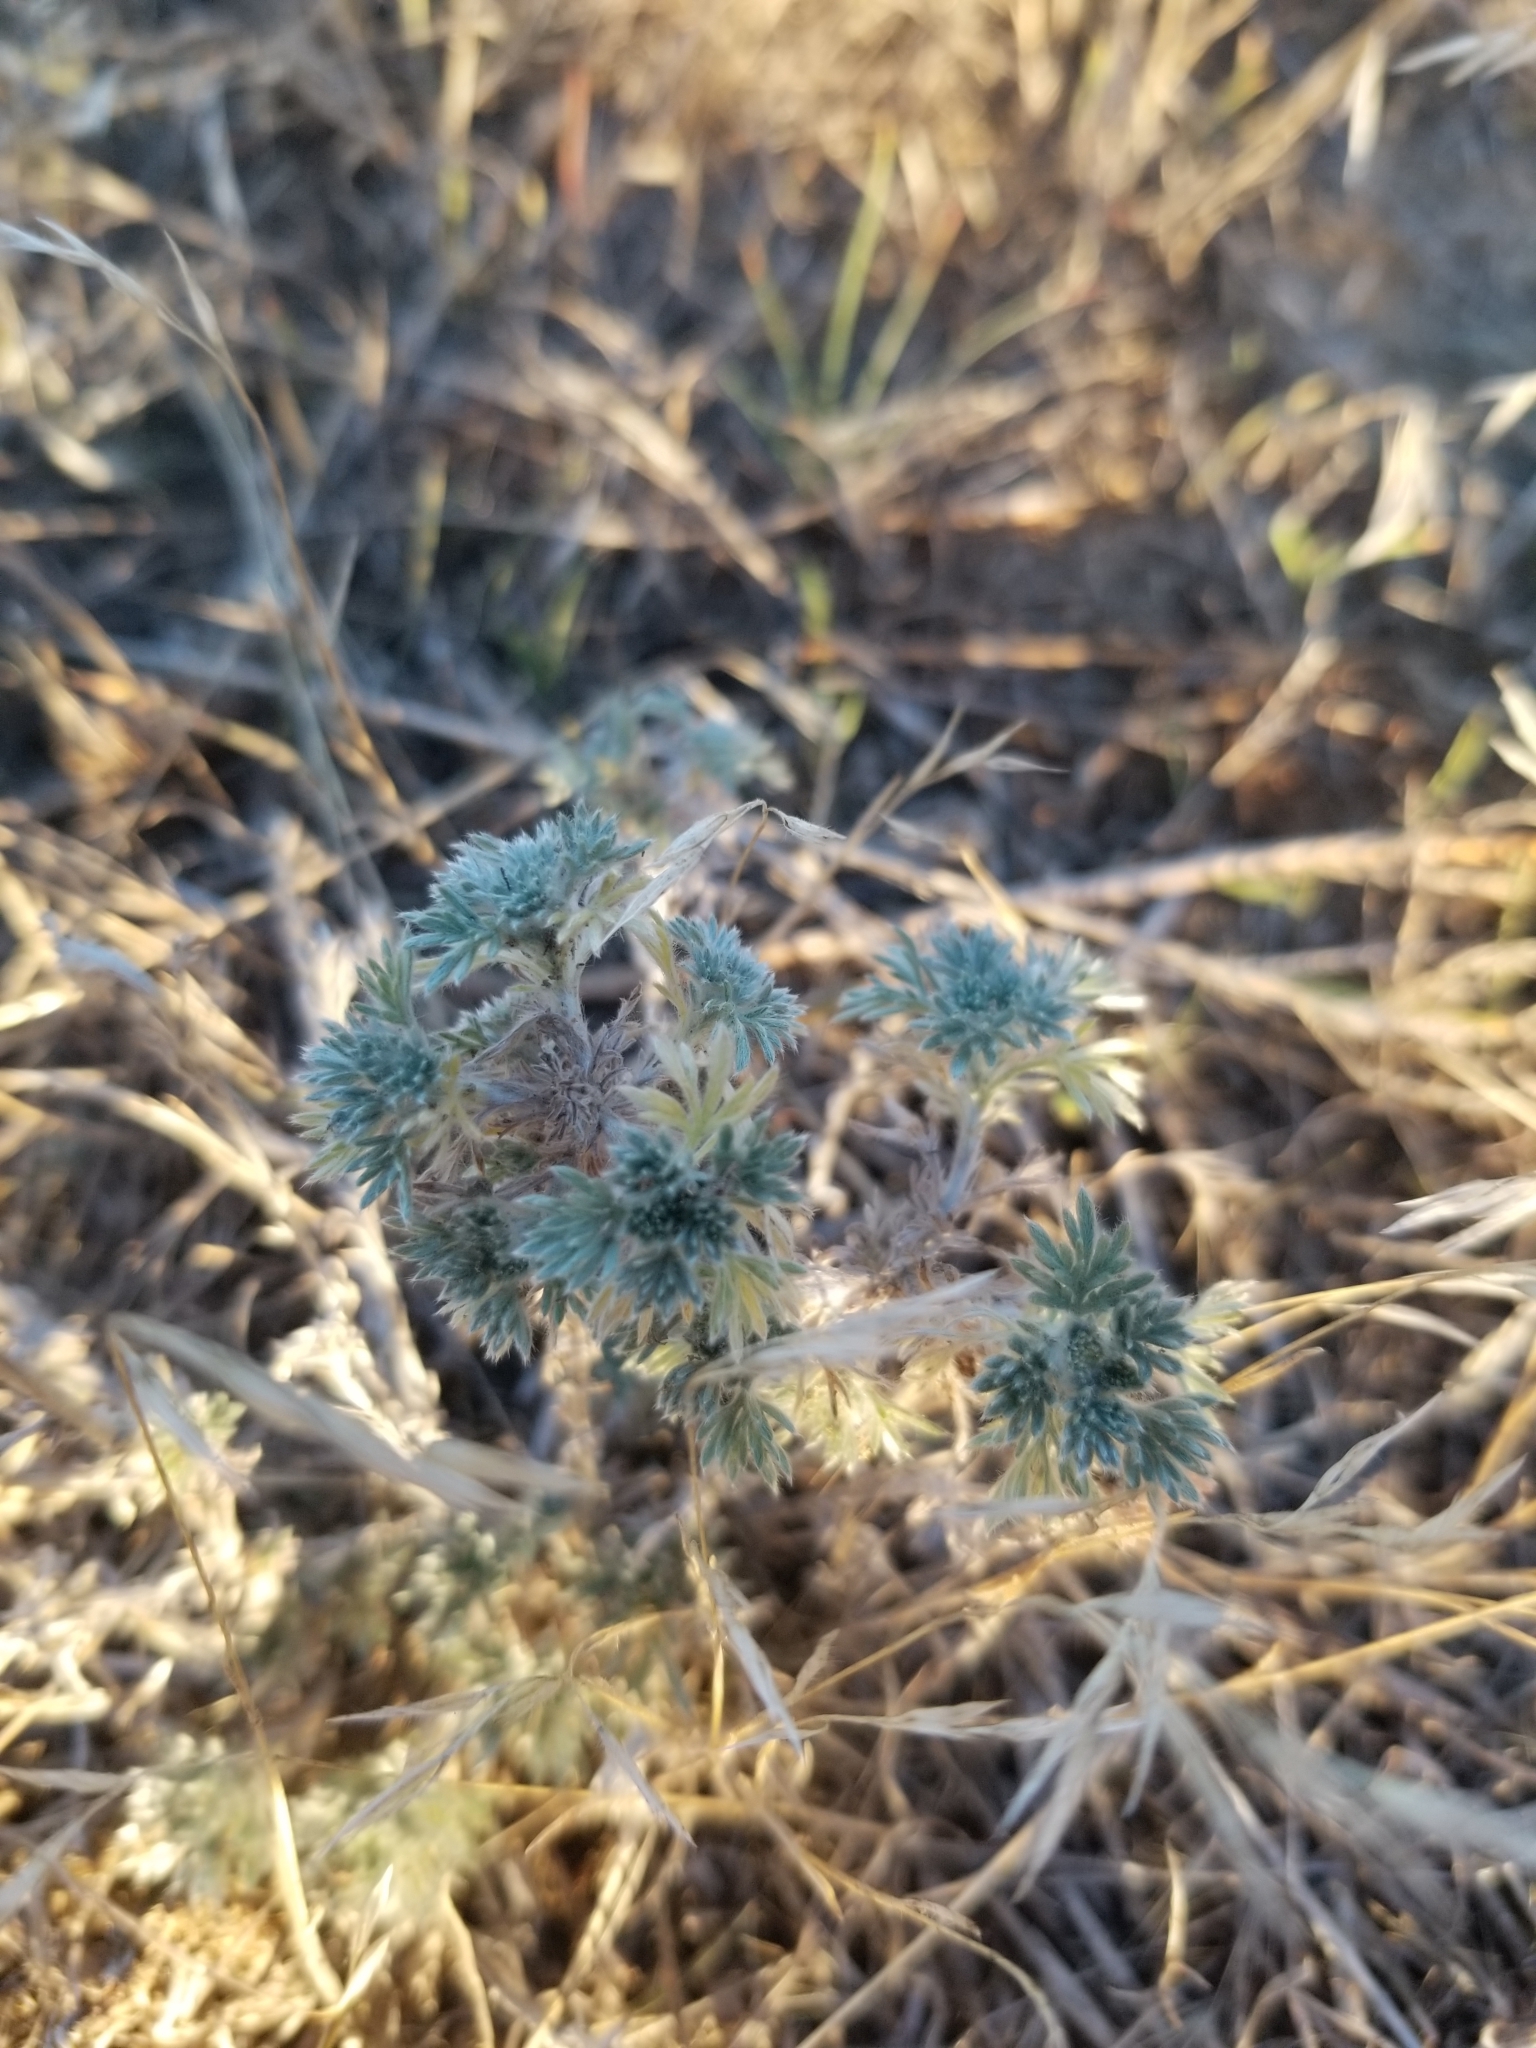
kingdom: Plantae
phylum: Tracheophyta
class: Magnoliopsida
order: Asterales
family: Asteraceae
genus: Artemisia
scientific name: Artemisia frigida
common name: Prairie sagewort
